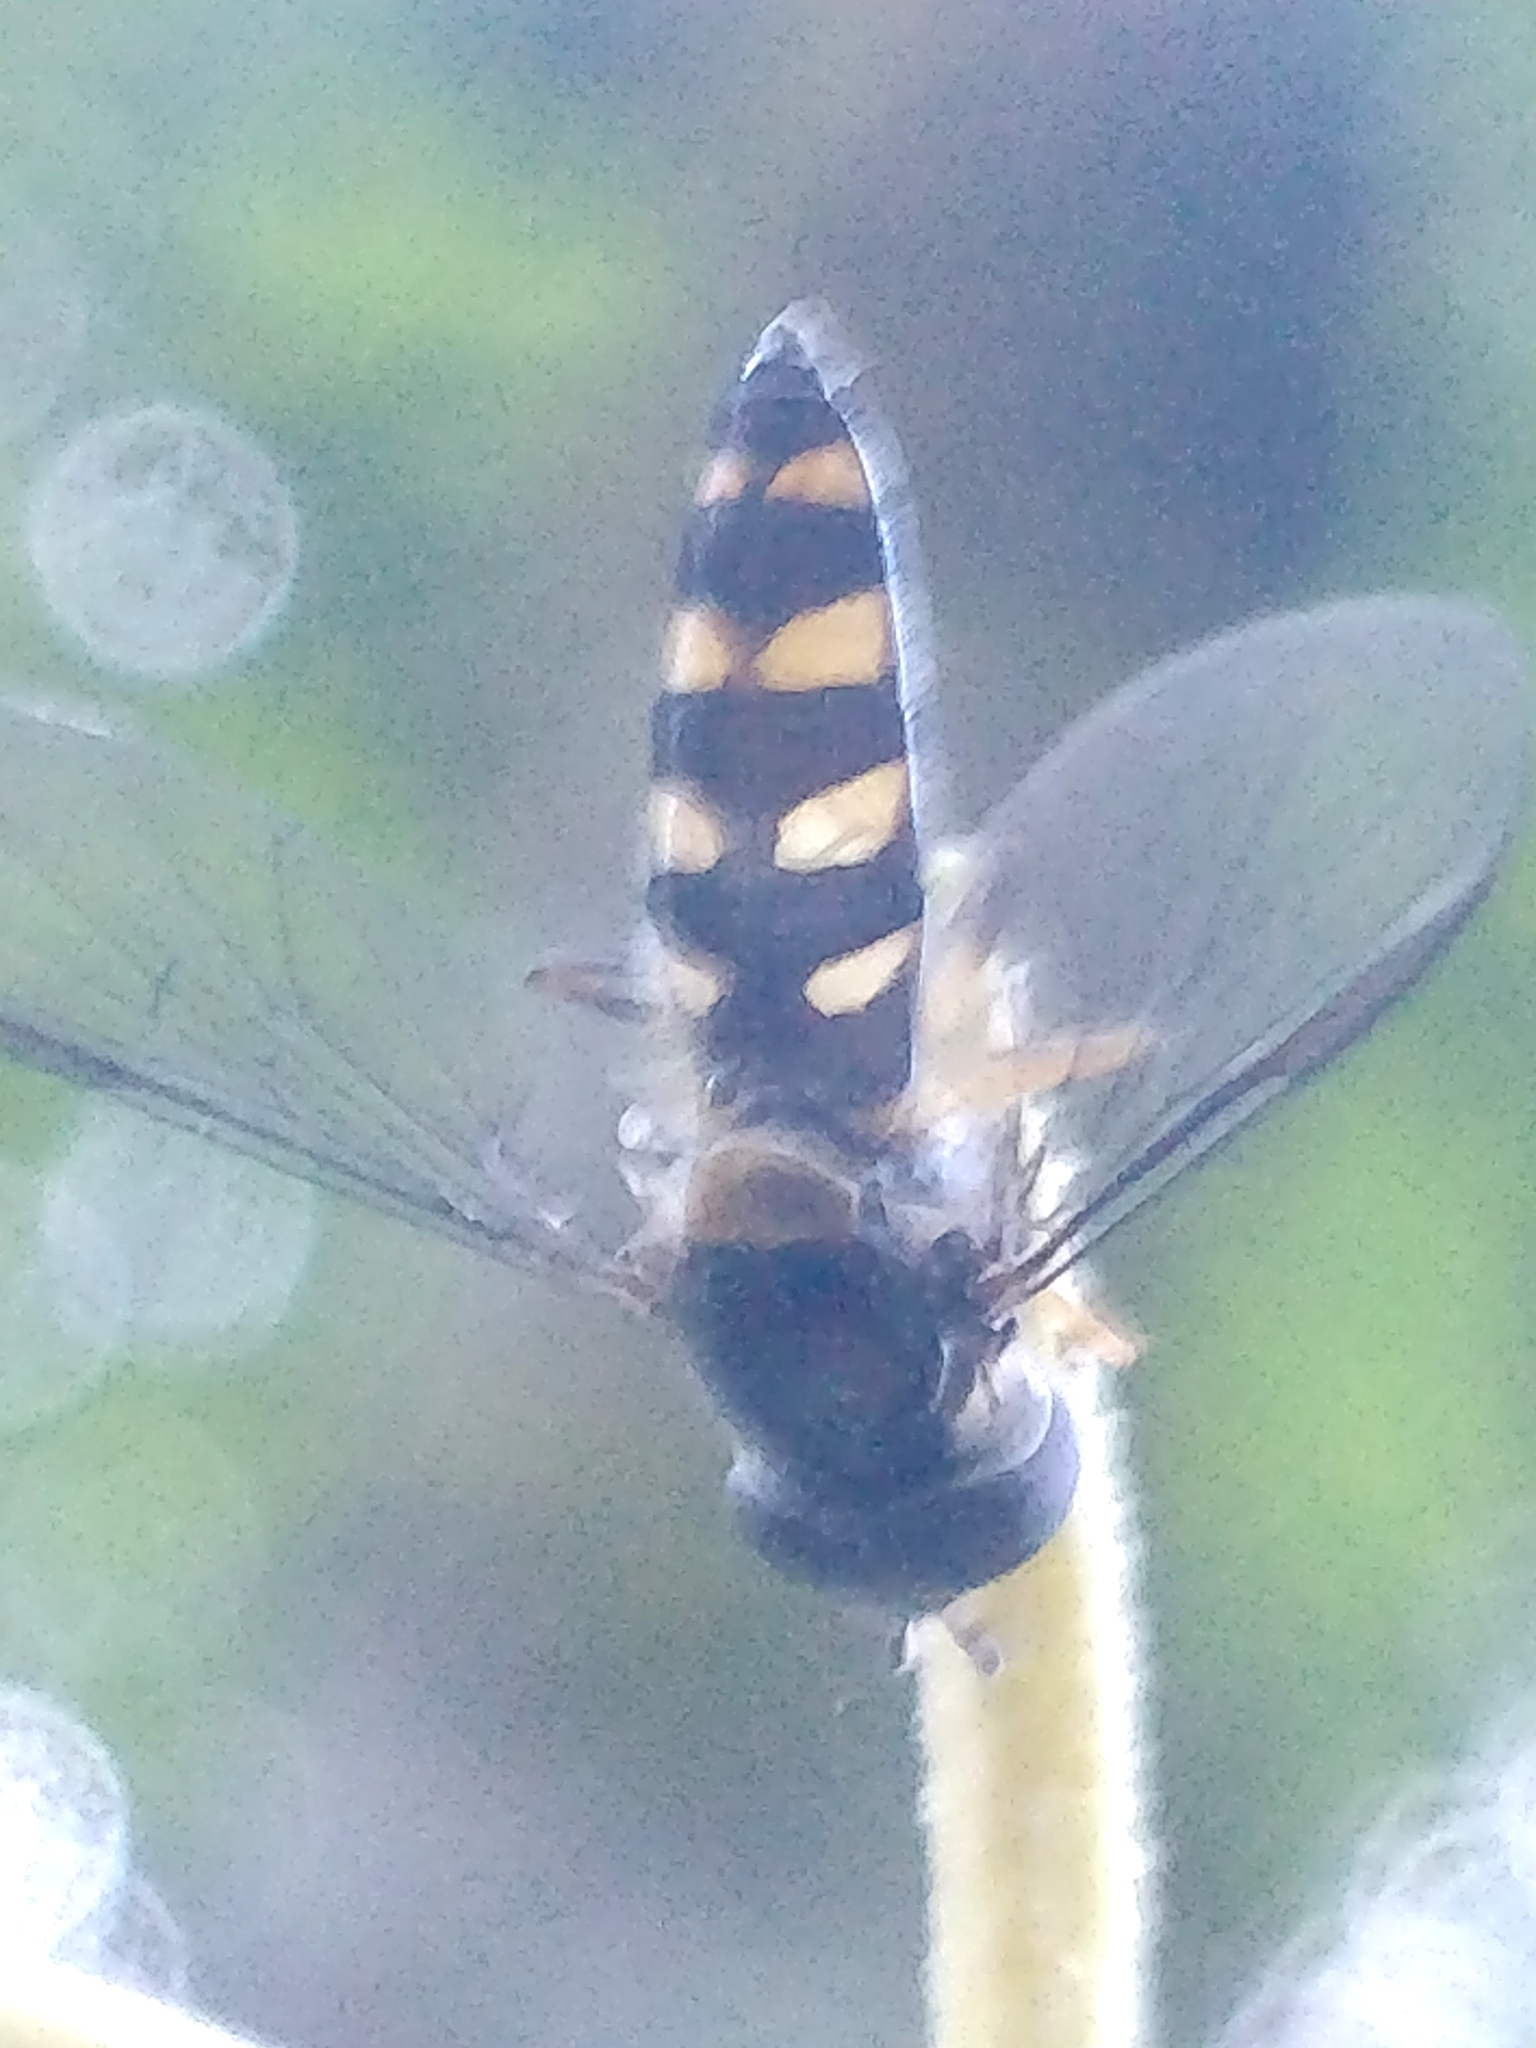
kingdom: Animalia
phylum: Arthropoda
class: Insecta
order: Diptera
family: Syrphidae
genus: Meliscaeva
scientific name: Meliscaeva auricollis
